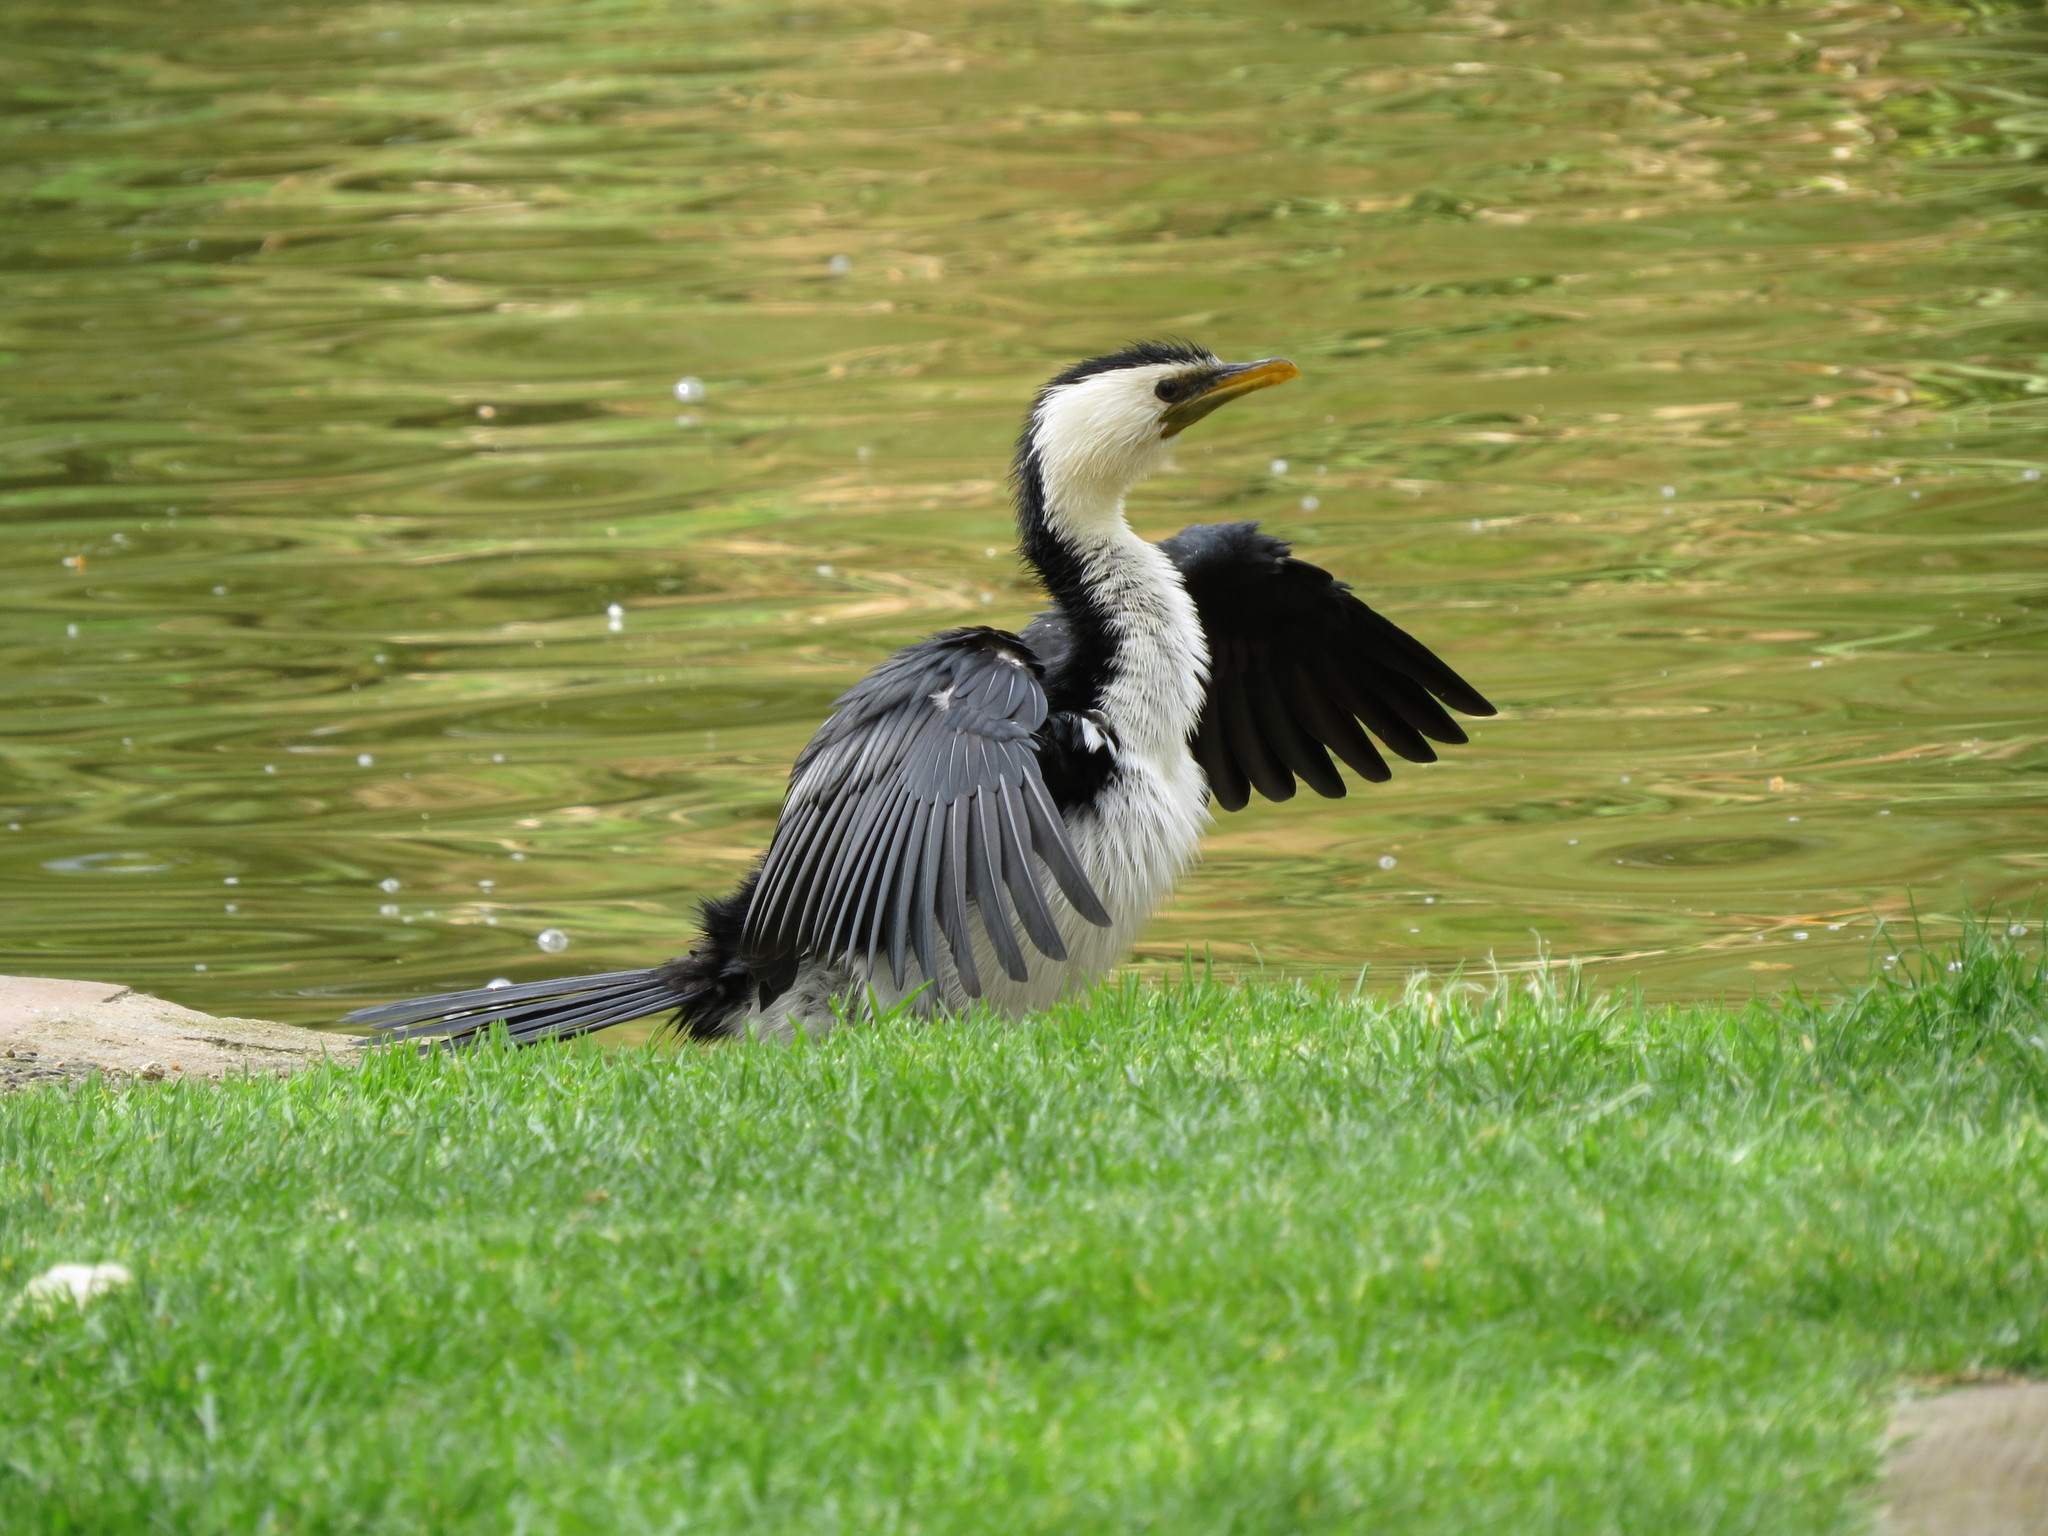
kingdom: Animalia
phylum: Chordata
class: Aves
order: Suliformes
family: Phalacrocoracidae
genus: Microcarbo
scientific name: Microcarbo melanoleucos
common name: Little pied cormorant
